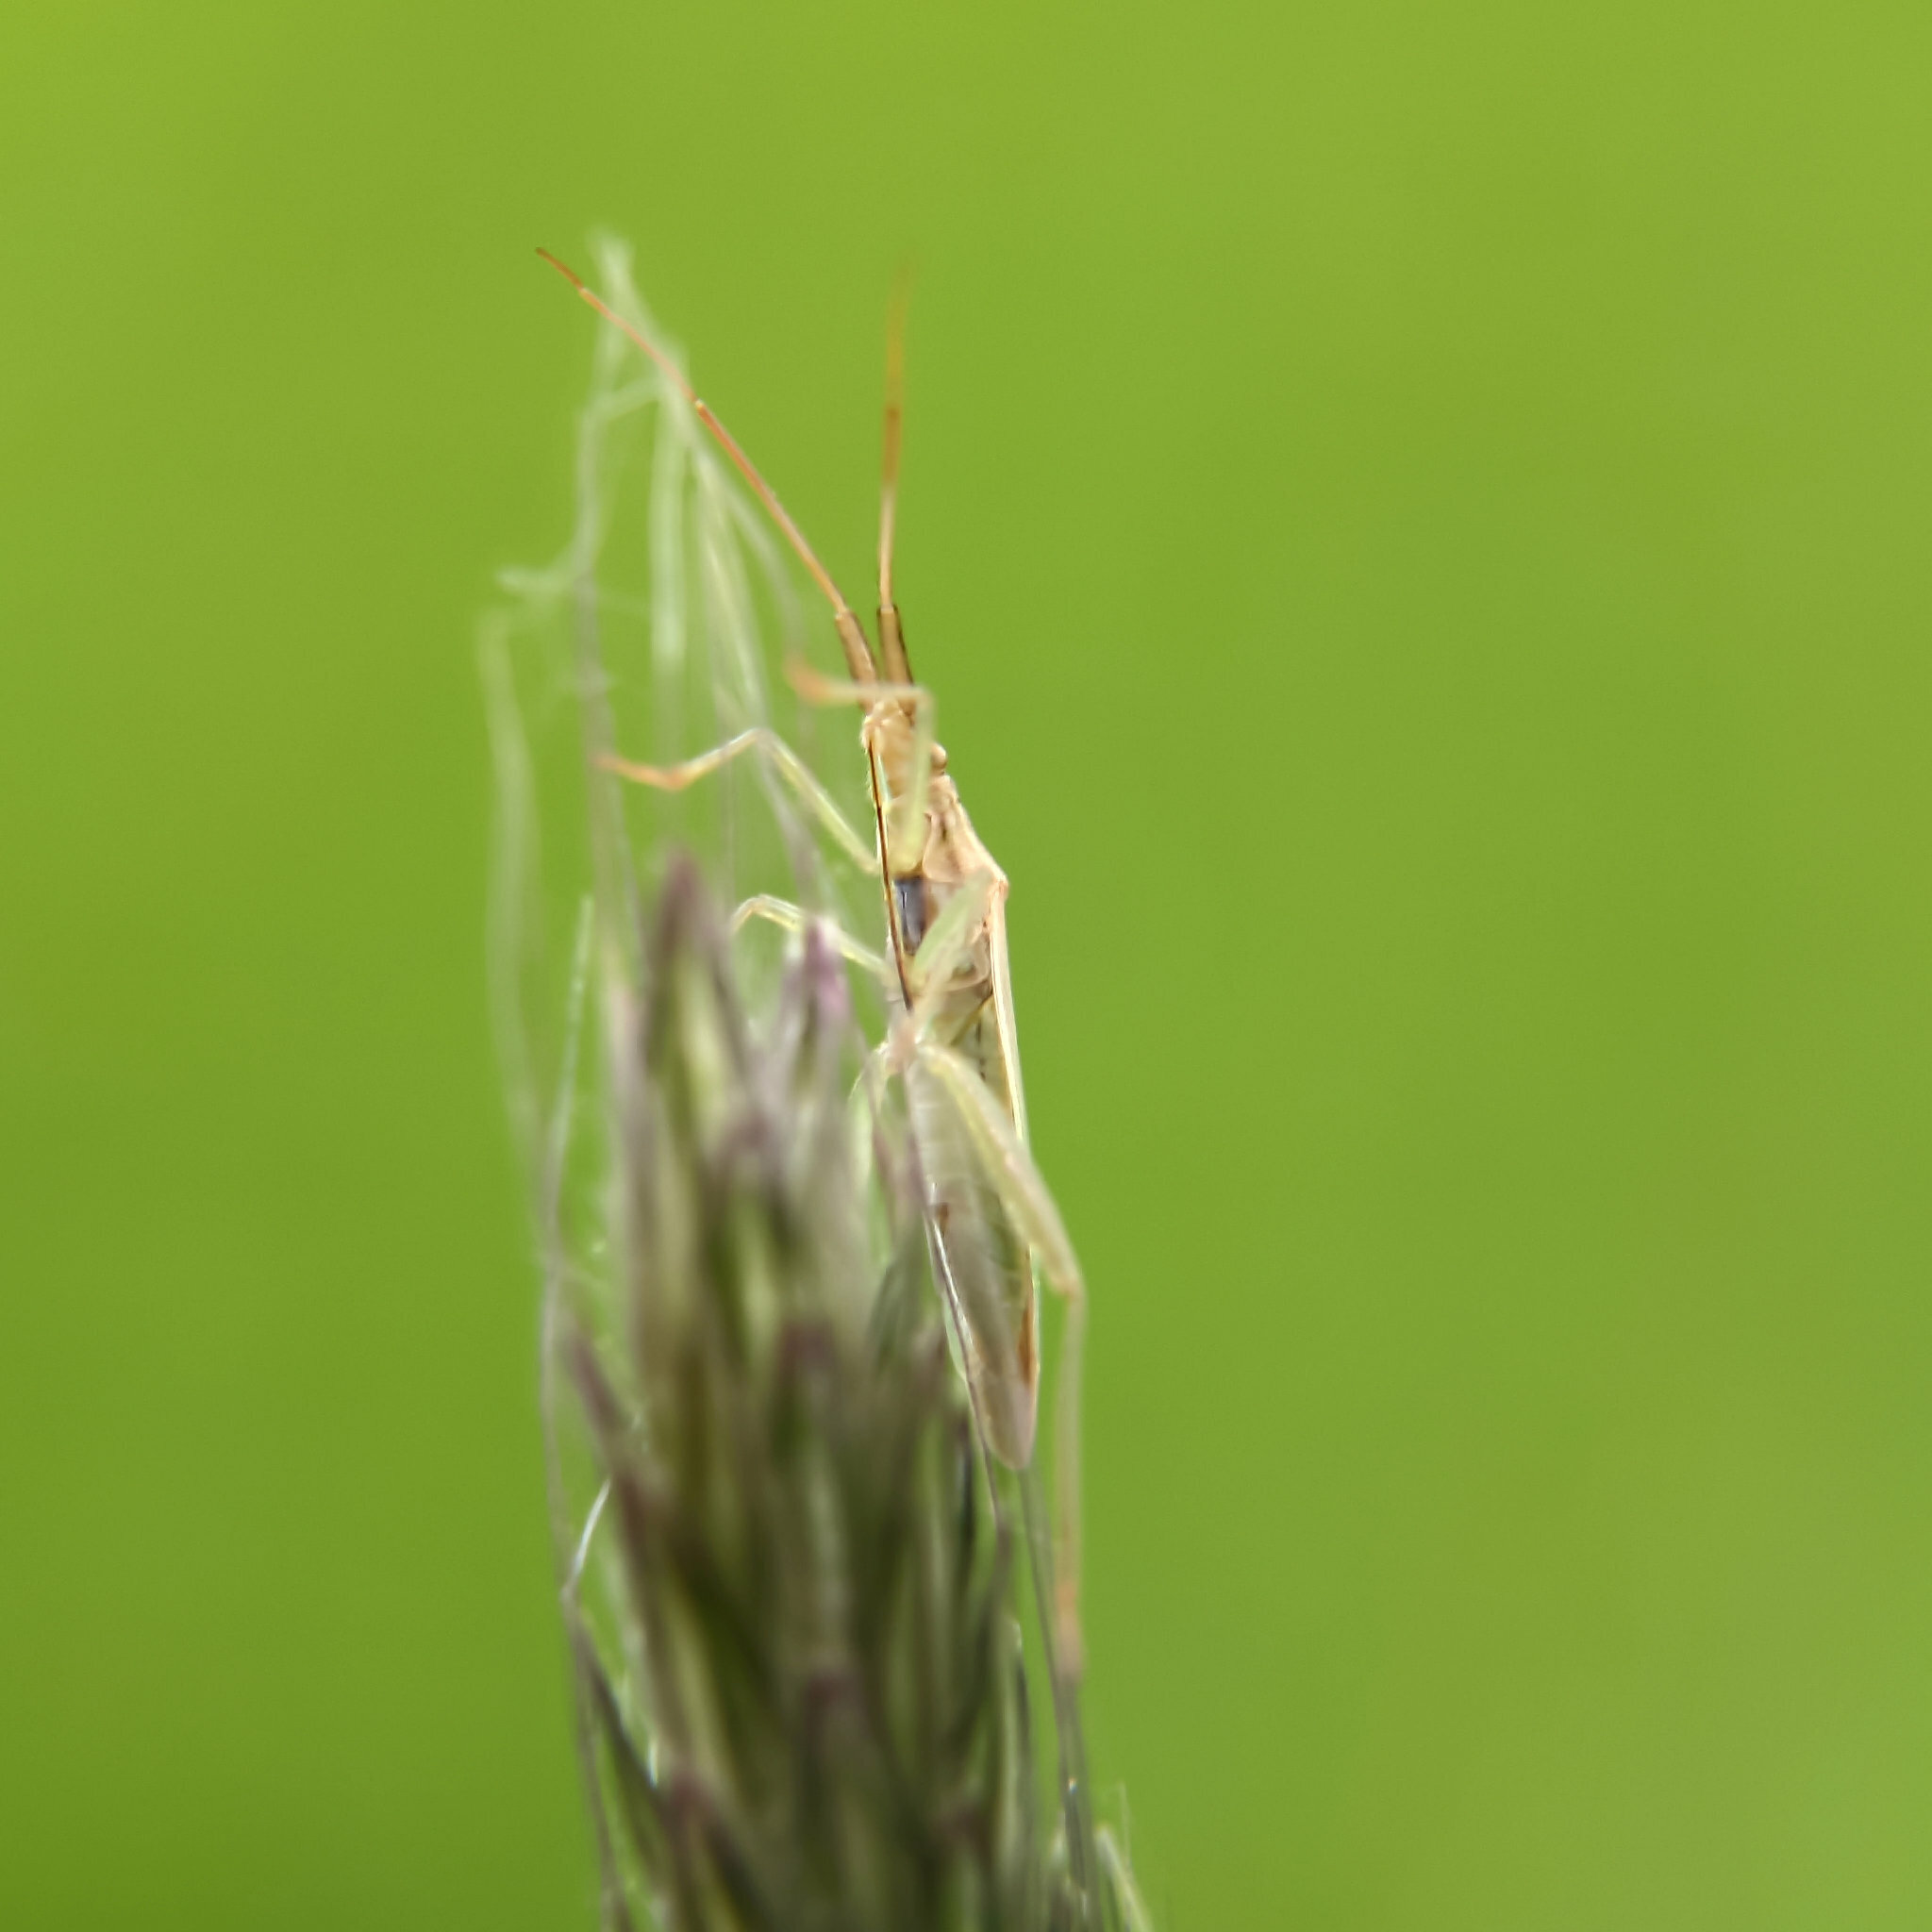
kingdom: Animalia
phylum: Arthropoda
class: Insecta
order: Hemiptera
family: Miridae
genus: Stenodema
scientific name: Stenodema laevigata
